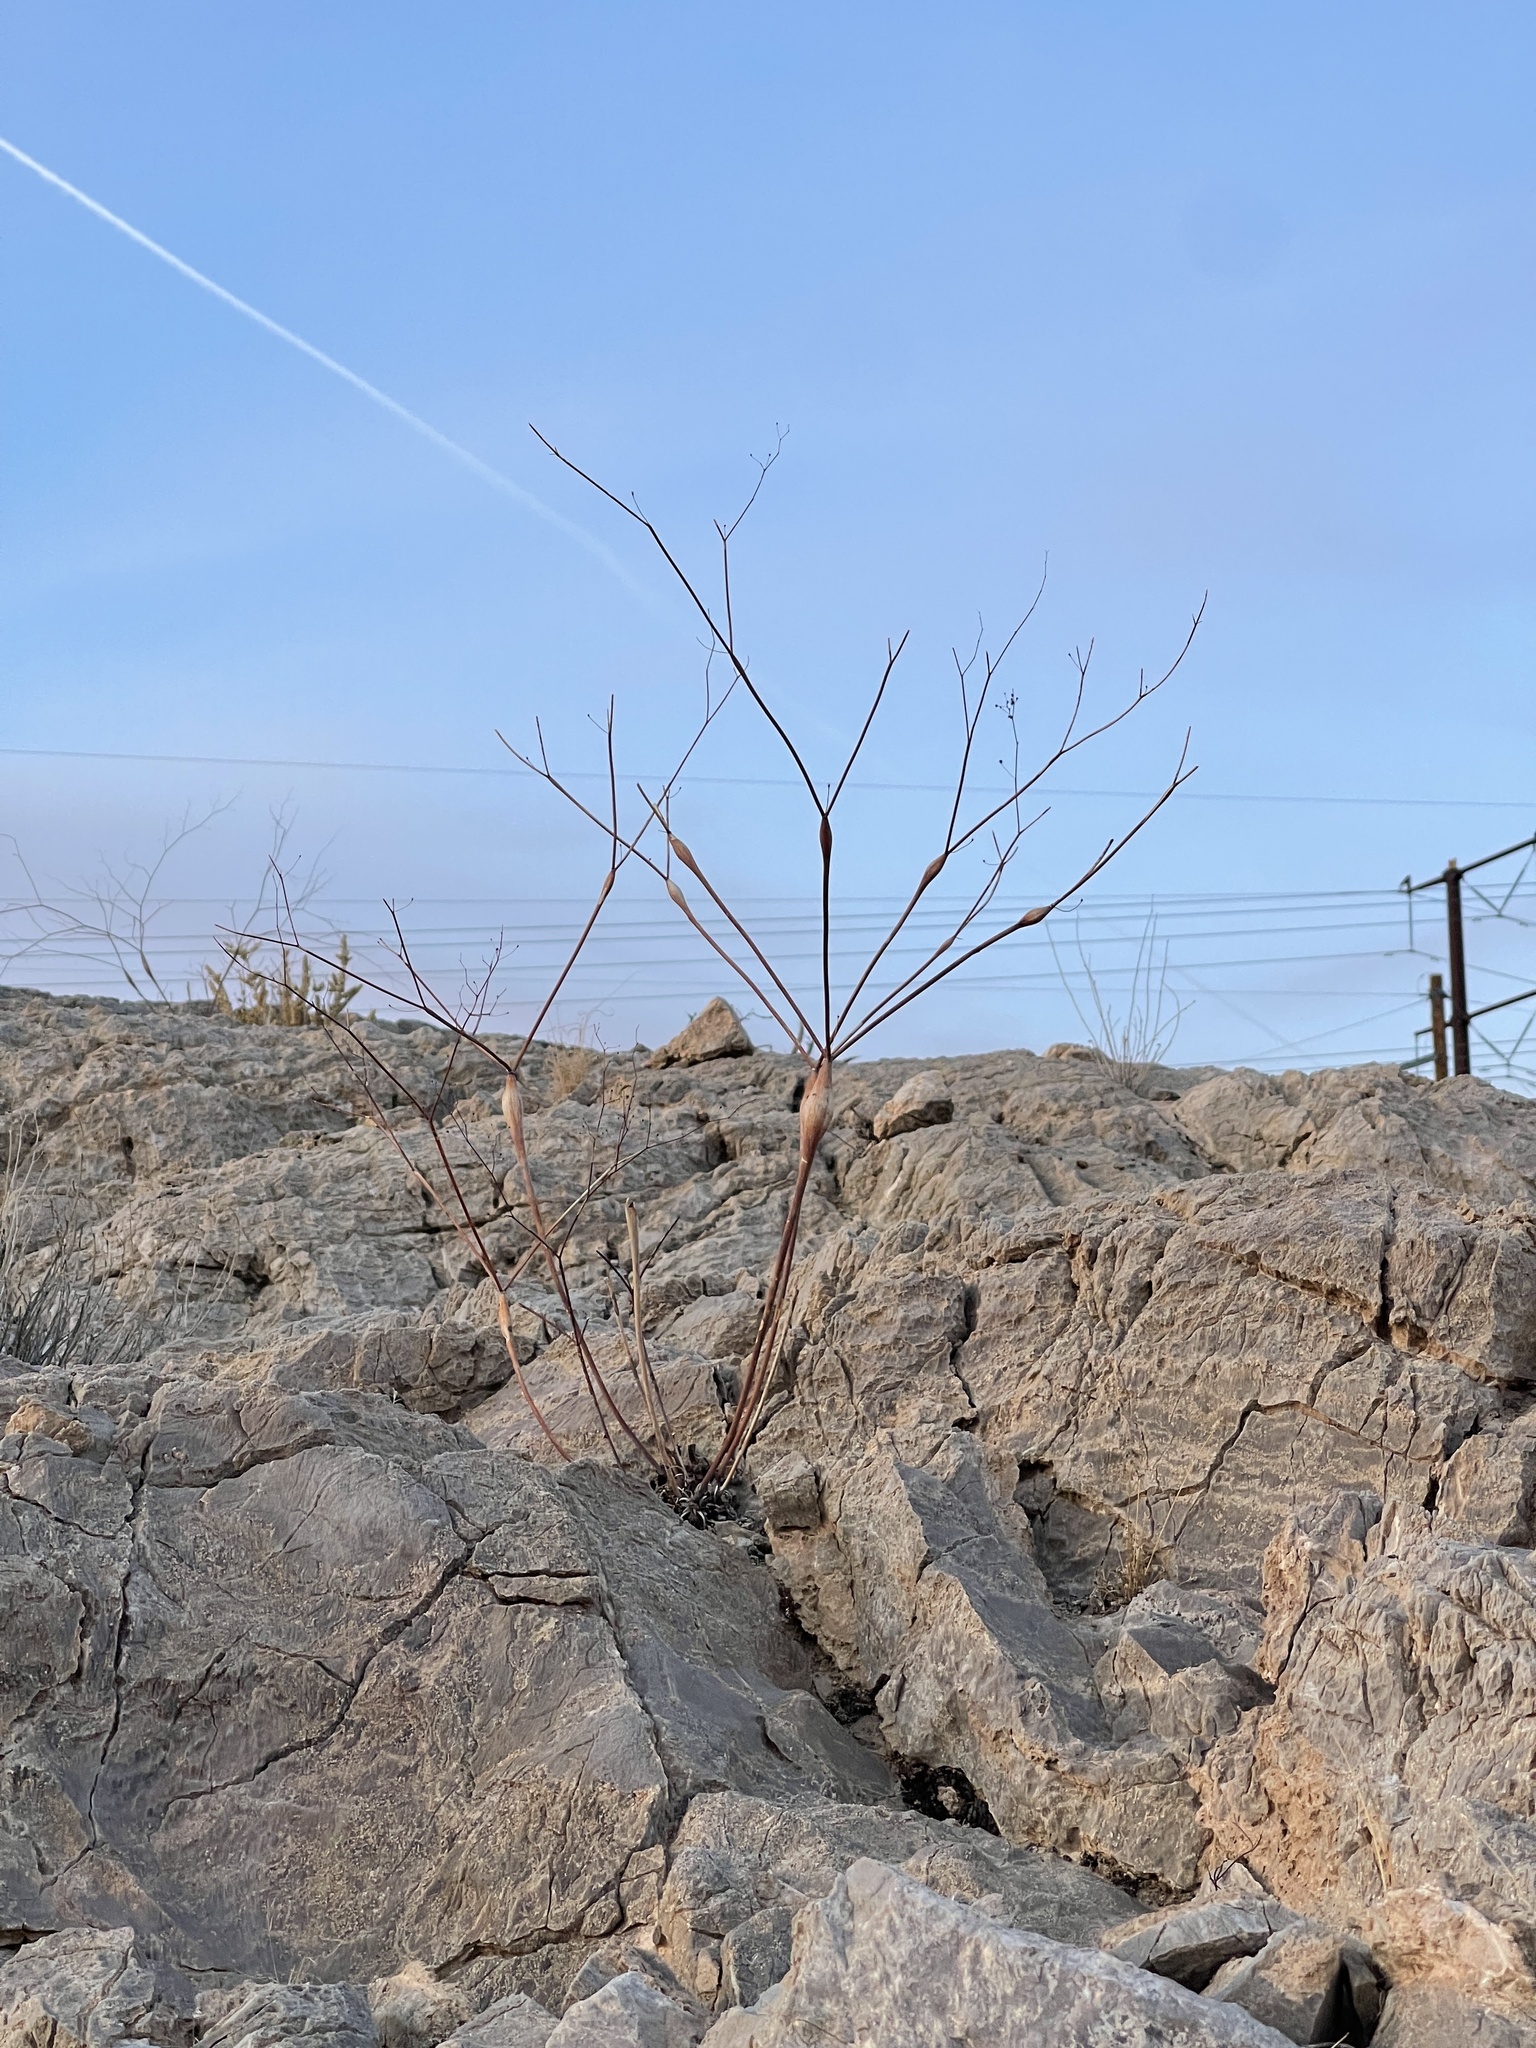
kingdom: Plantae
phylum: Tracheophyta
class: Magnoliopsida
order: Caryophyllales
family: Polygonaceae
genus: Eriogonum
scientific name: Eriogonum inflatum
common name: Desert trumpet
